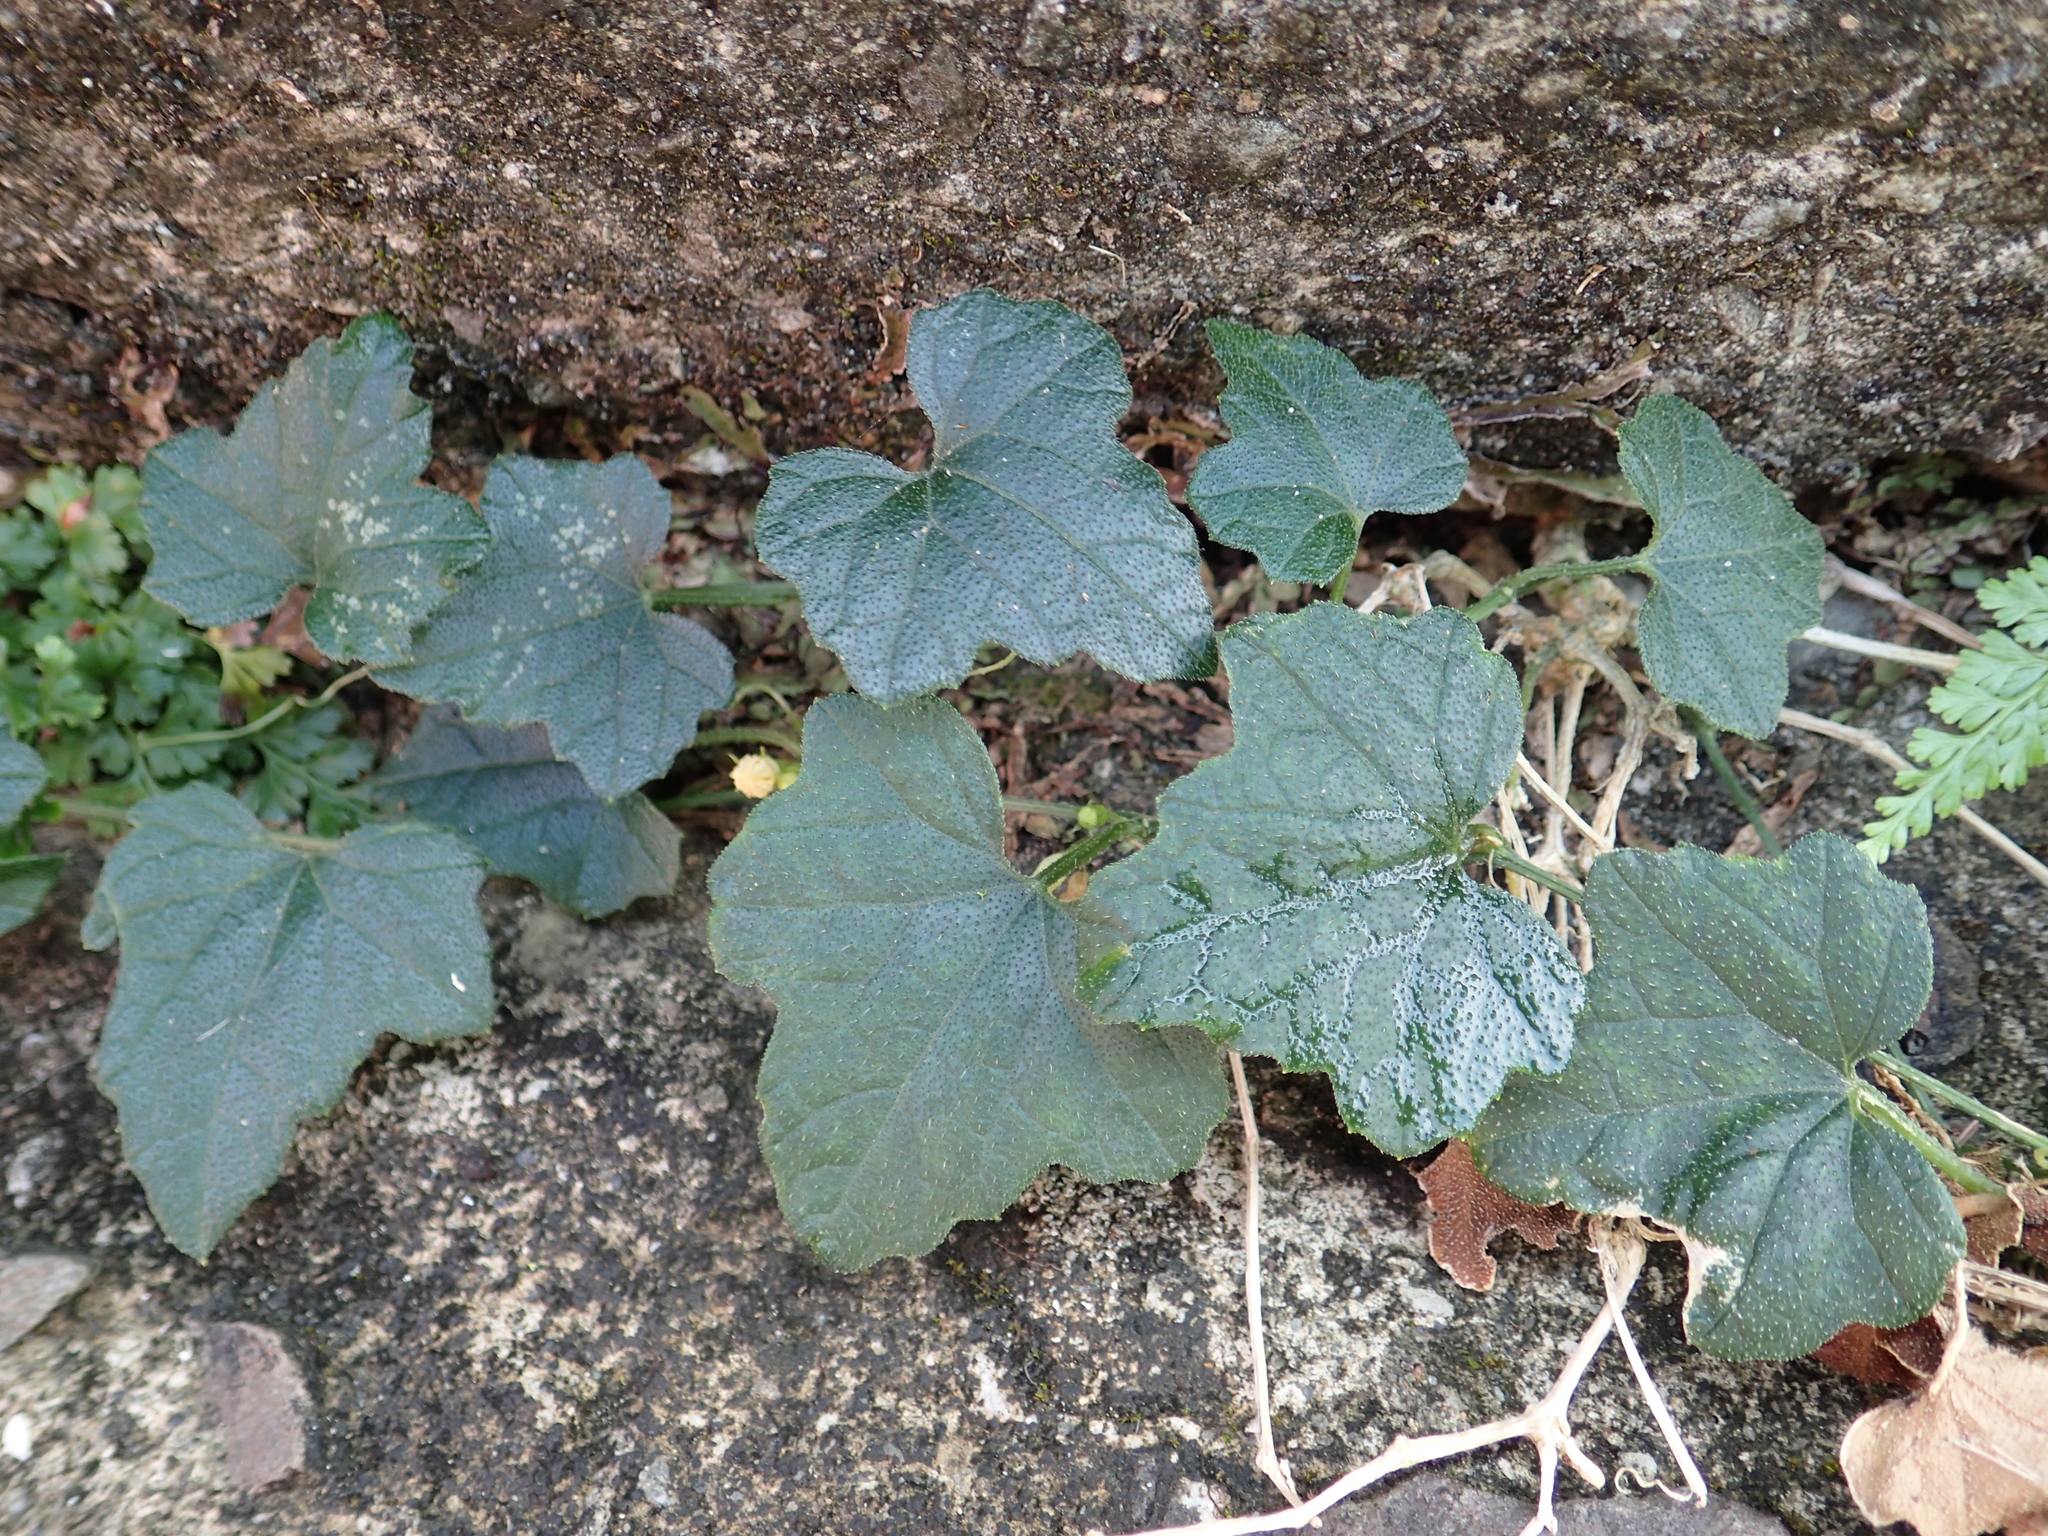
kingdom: Plantae
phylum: Tracheophyta
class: Magnoliopsida
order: Cucurbitales
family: Cucurbitaceae
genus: Cucumis
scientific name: Cucumis maderaspatanus
